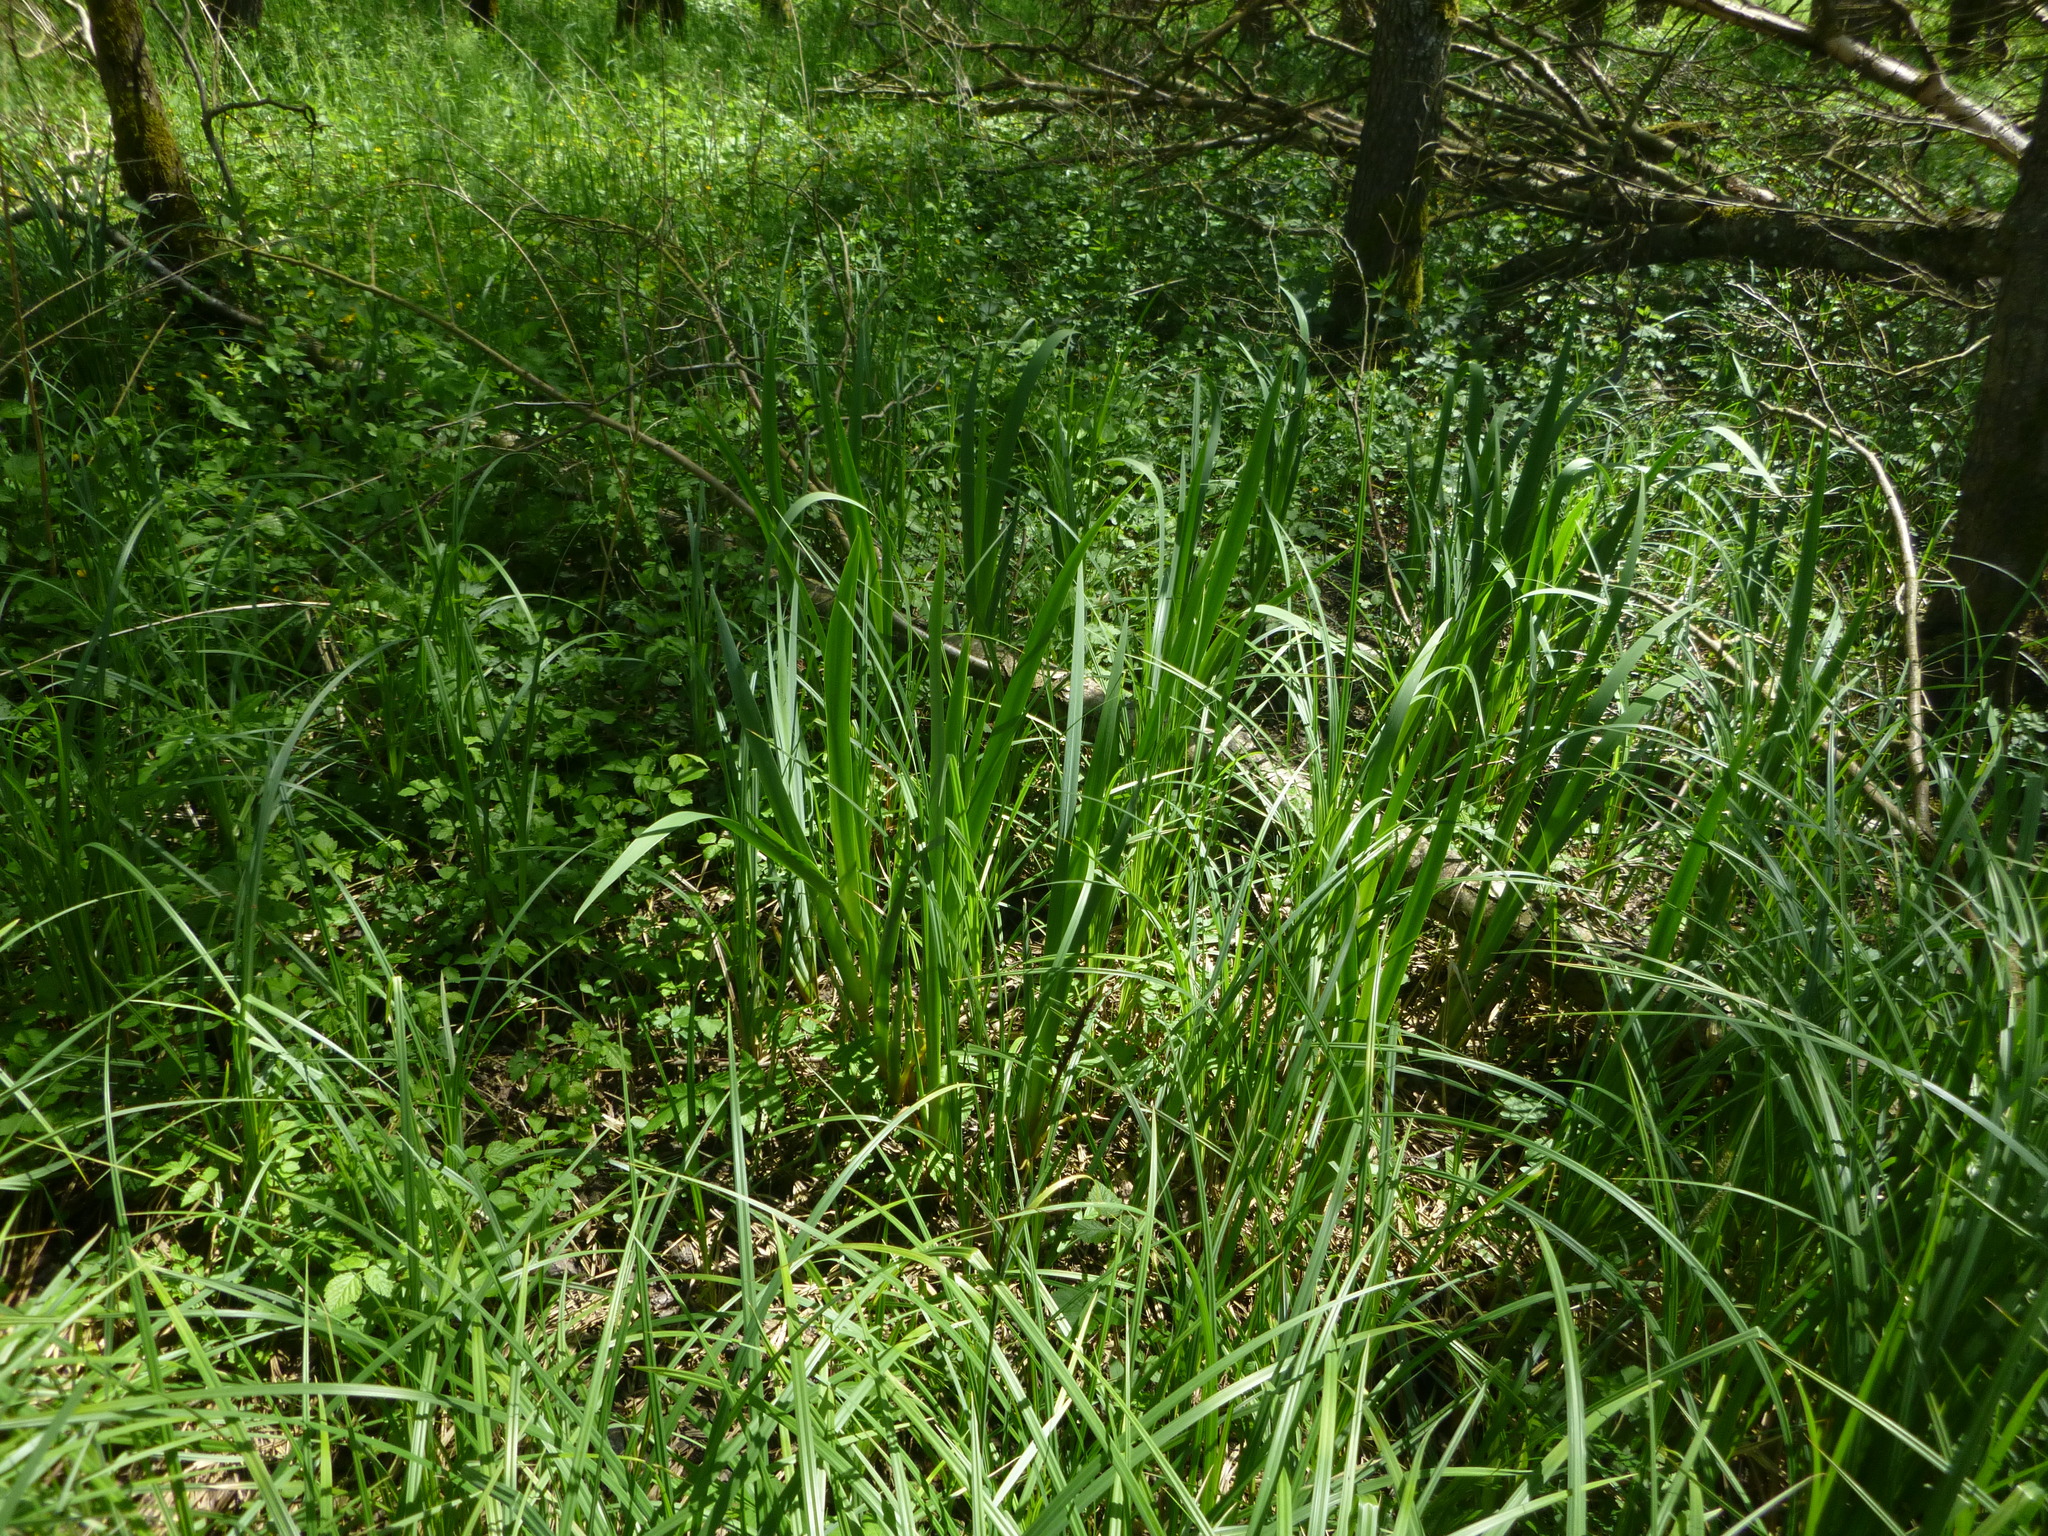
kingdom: Plantae
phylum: Tracheophyta
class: Liliopsida
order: Asparagales
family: Iridaceae
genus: Iris
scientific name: Iris pseudacorus
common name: Yellow flag
